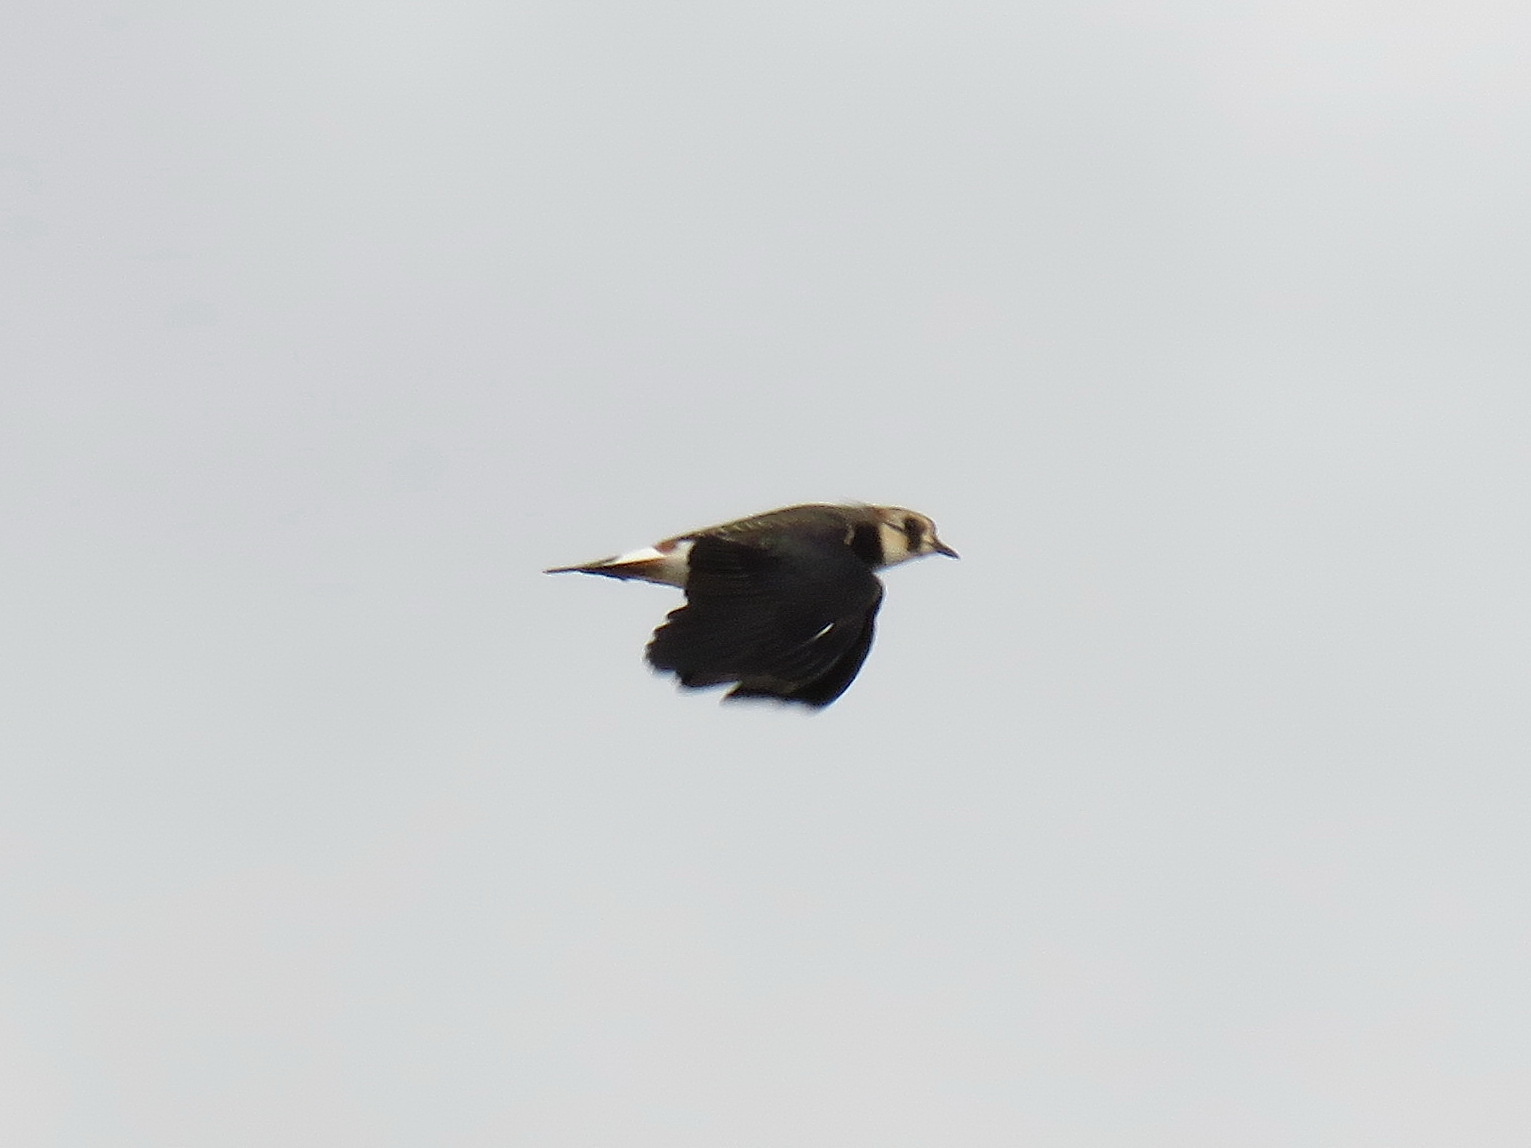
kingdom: Animalia
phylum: Chordata
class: Aves
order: Charadriiformes
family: Charadriidae
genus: Vanellus
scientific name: Vanellus vanellus
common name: Northern lapwing
